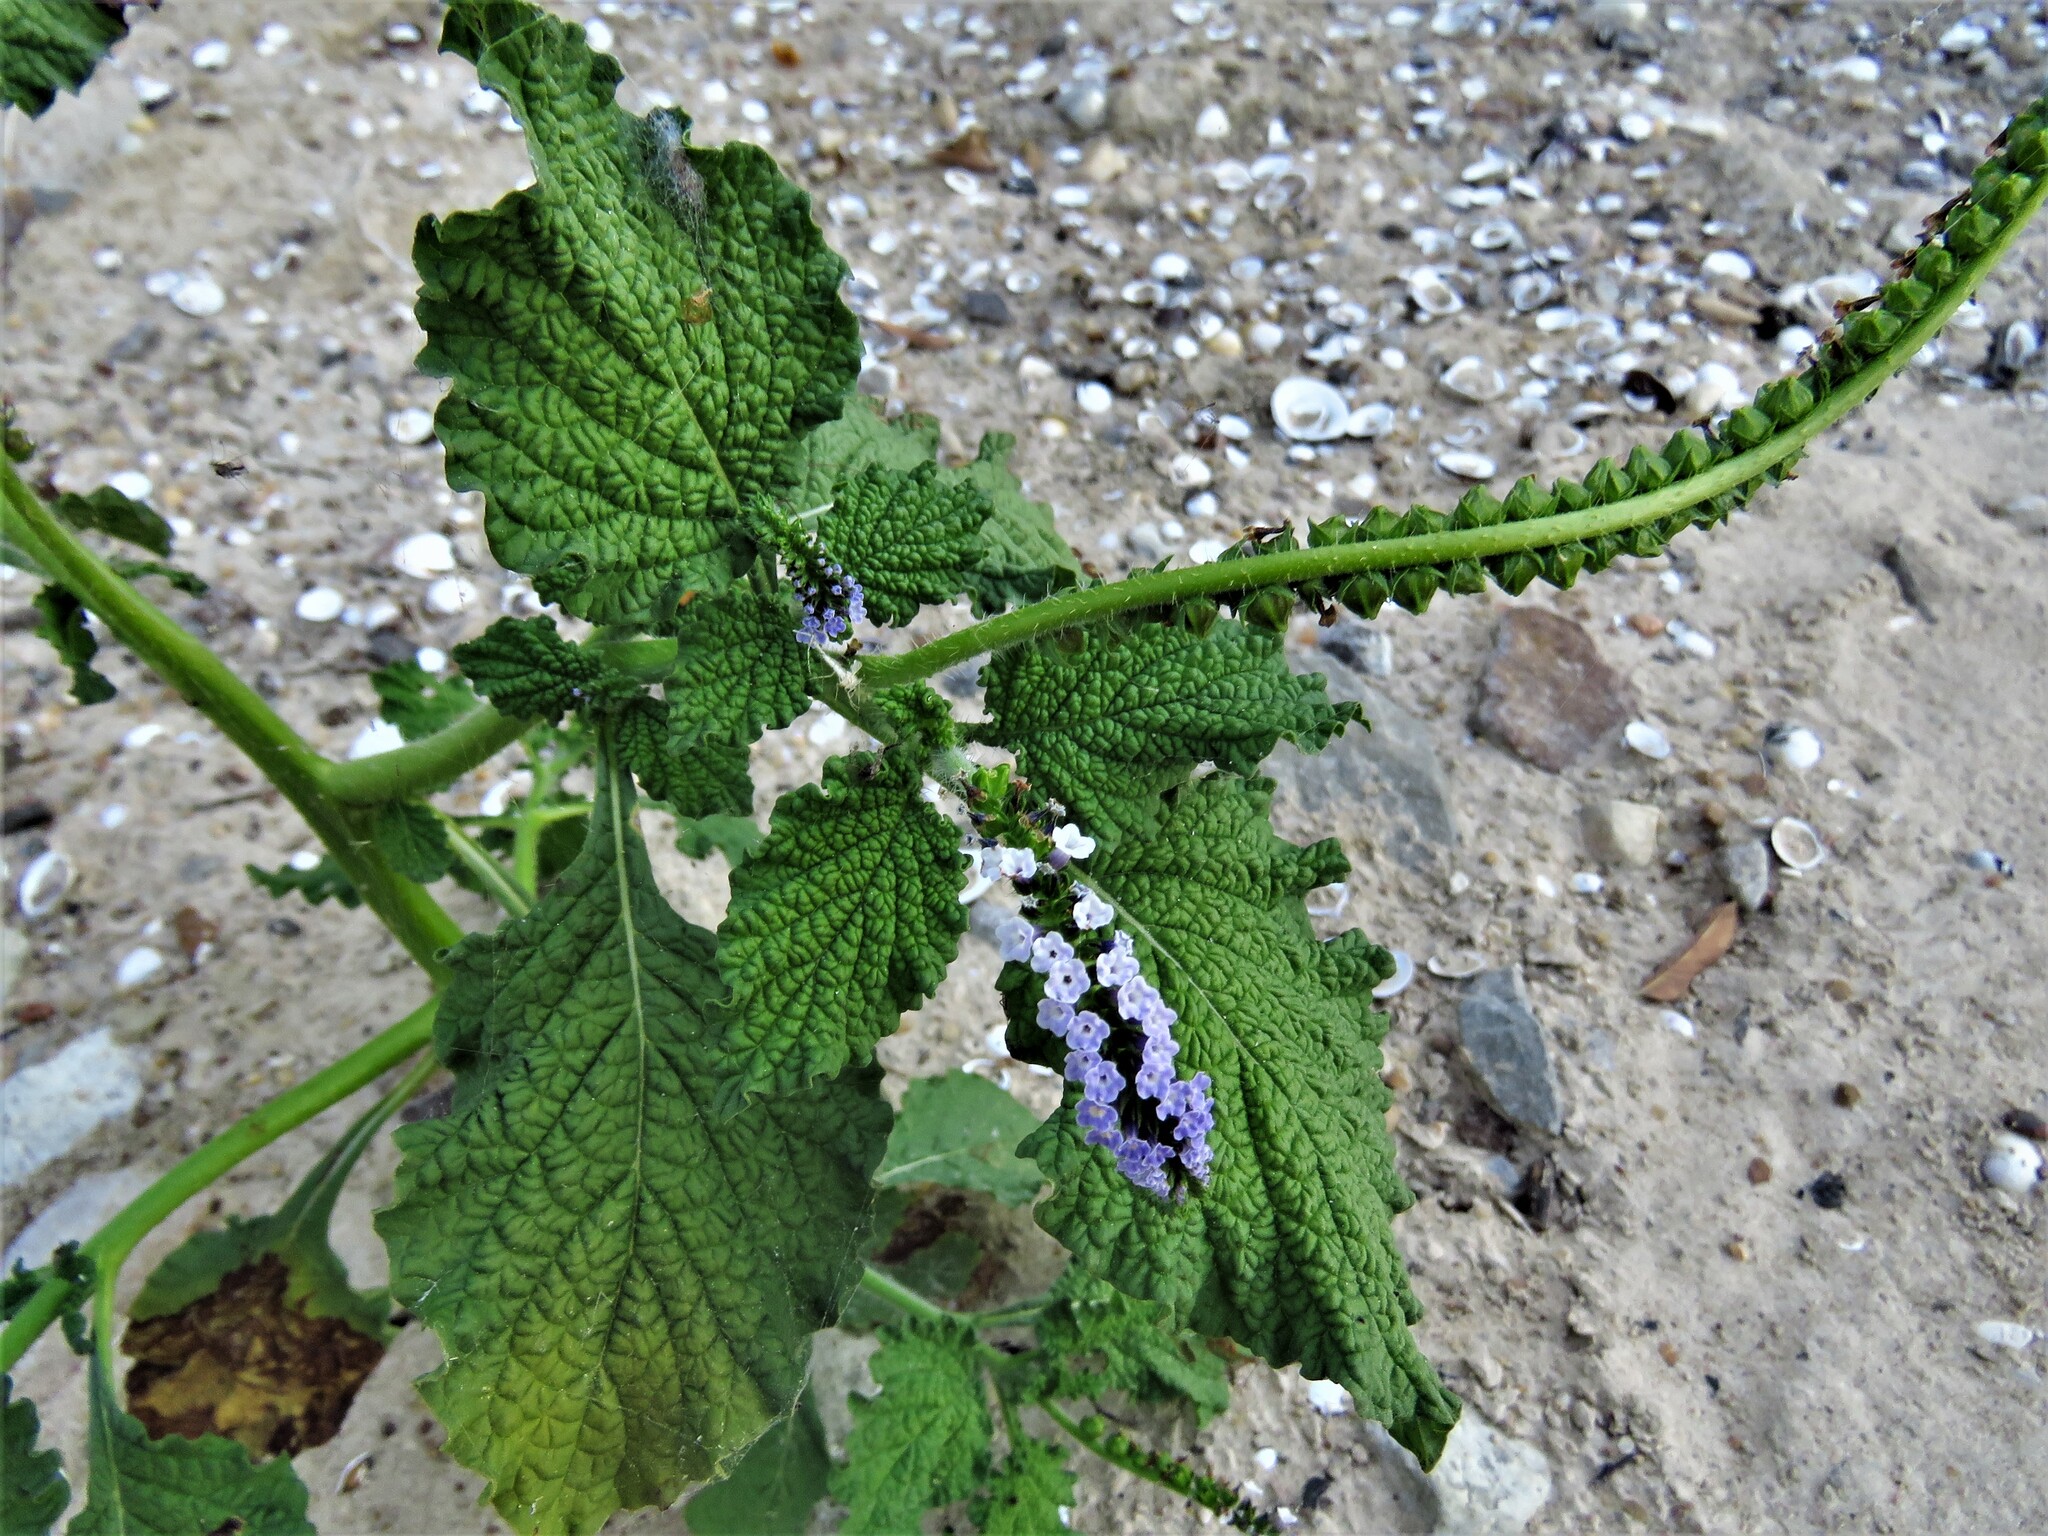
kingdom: Plantae
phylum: Tracheophyta
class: Magnoliopsida
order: Boraginales
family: Heliotropiaceae
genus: Heliotropium
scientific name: Heliotropium indicum
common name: Indian heliotrope
